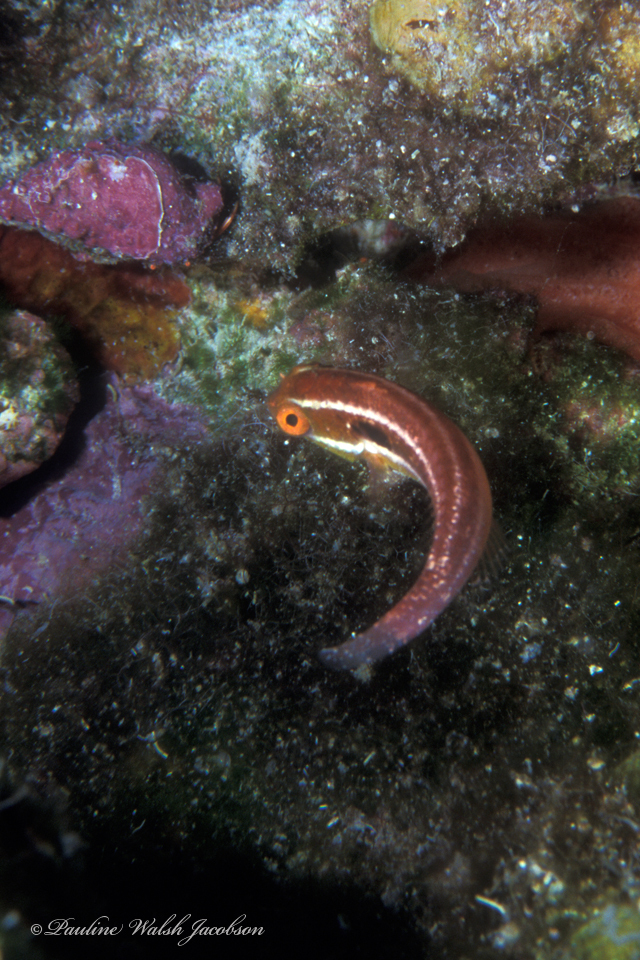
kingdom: Animalia
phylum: Chordata
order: Perciformes
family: Scaridae
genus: Sparisoma
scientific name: Sparisoma aurofrenatum
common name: Redband parrotfish
